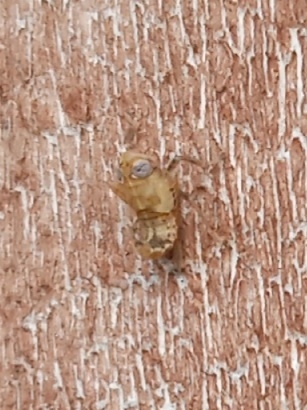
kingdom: Animalia
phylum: Arthropoda
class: Insecta
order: Hemiptera
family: Cicadellidae
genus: Jikradia
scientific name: Jikradia olitoria
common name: Coppery leafhopper
